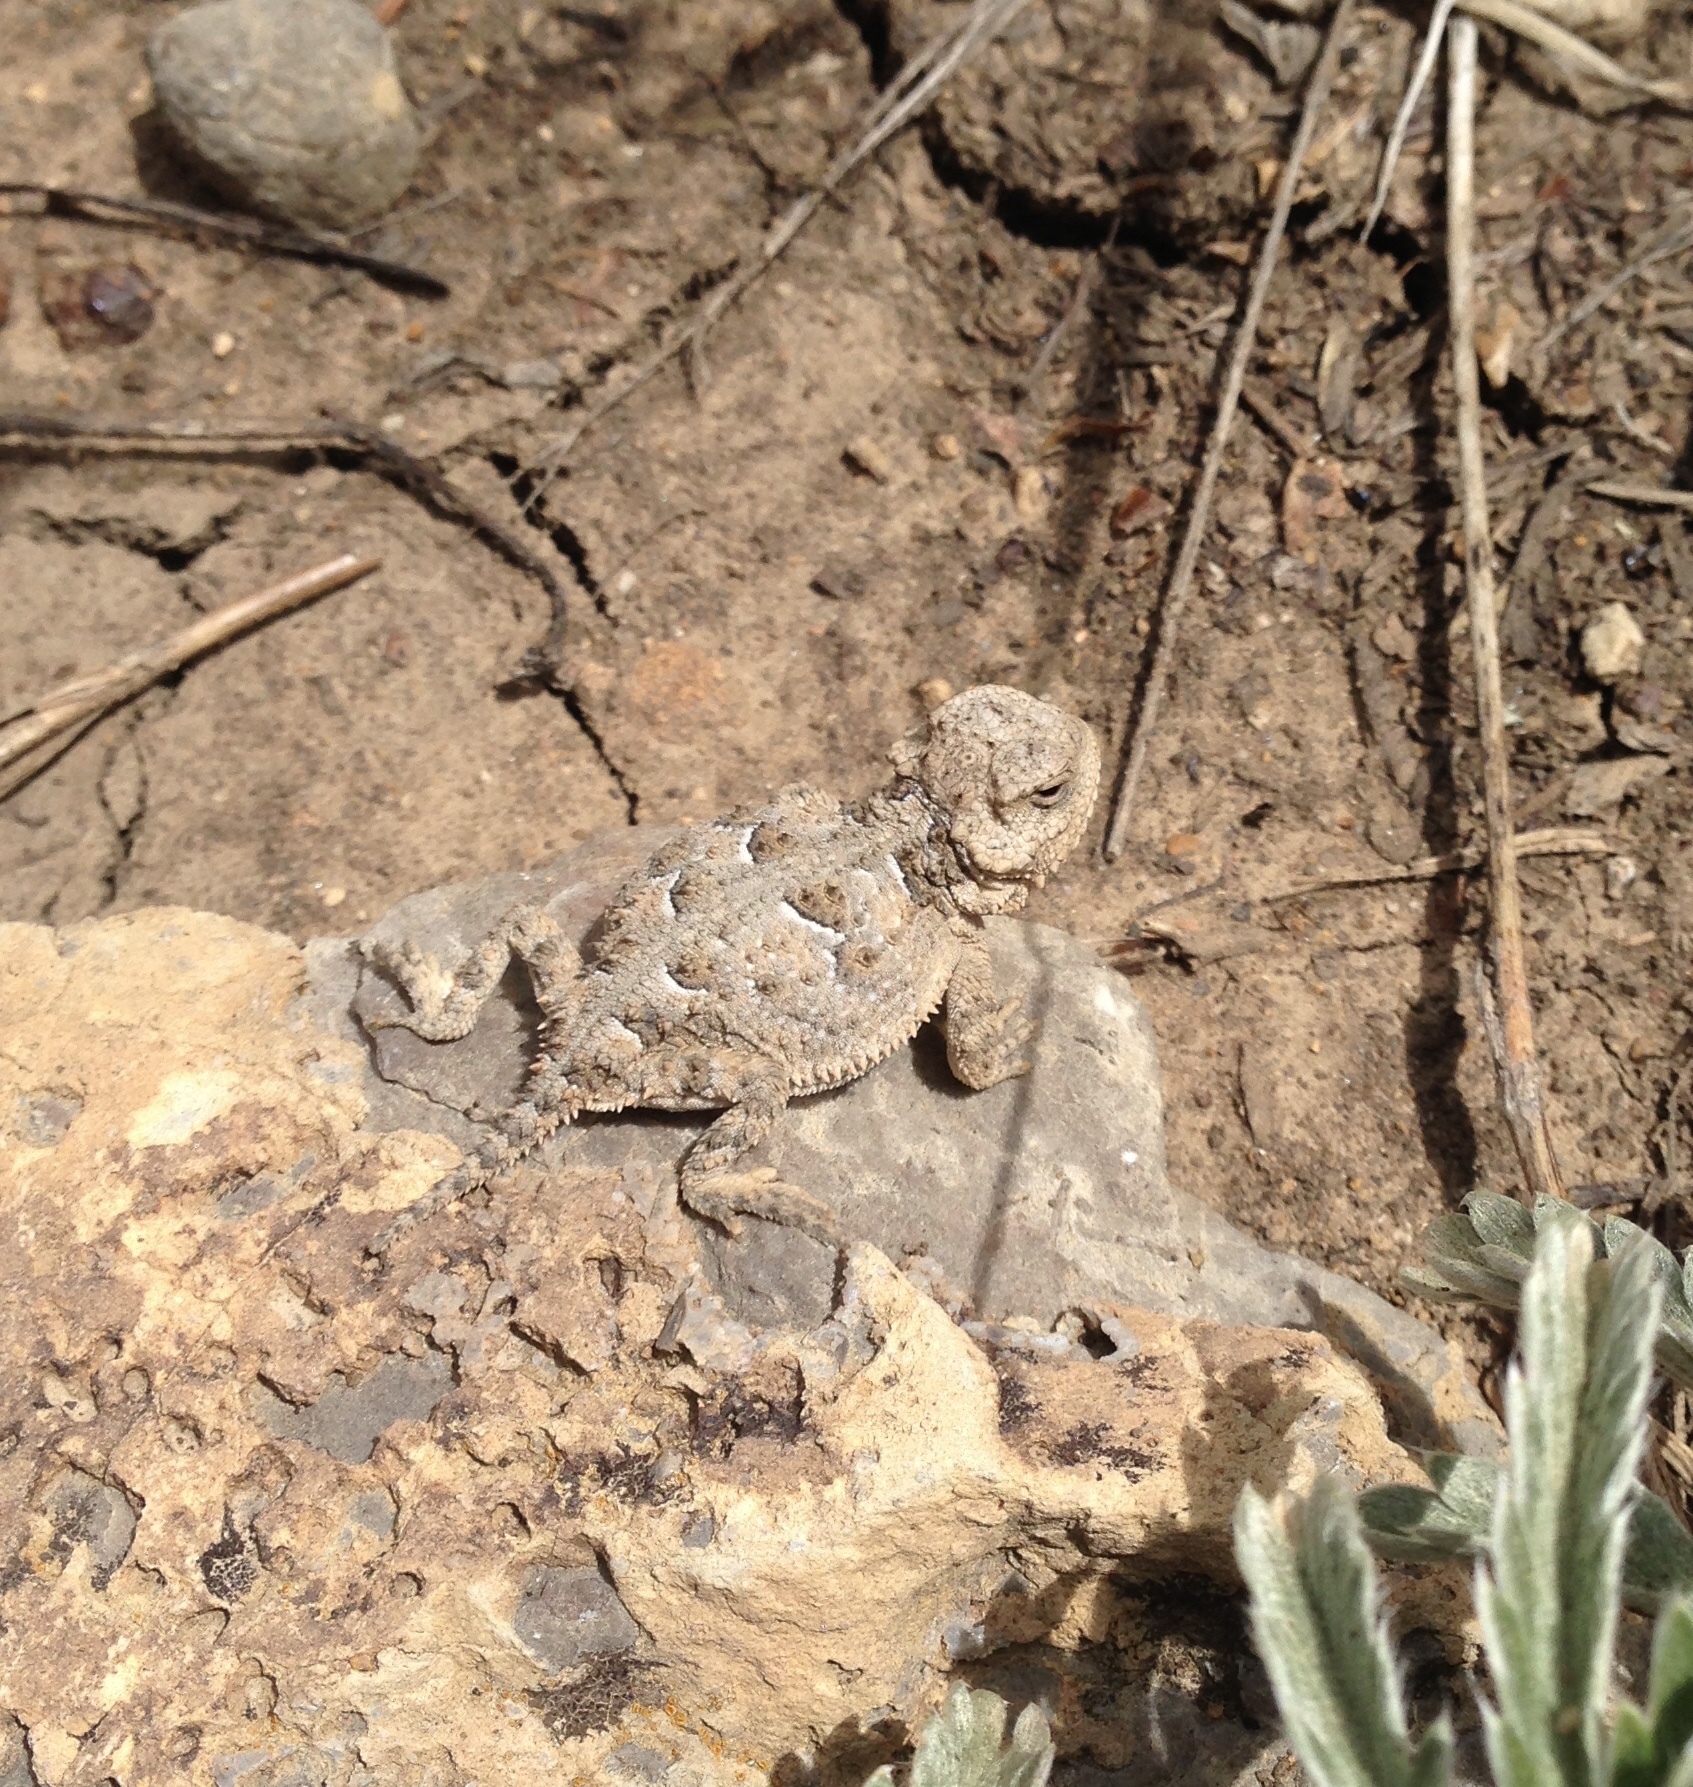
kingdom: Animalia
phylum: Chordata
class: Squamata
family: Phrynosomatidae
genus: Phrynosoma
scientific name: Phrynosoma hernandesi
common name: Greater short-horned lizard
